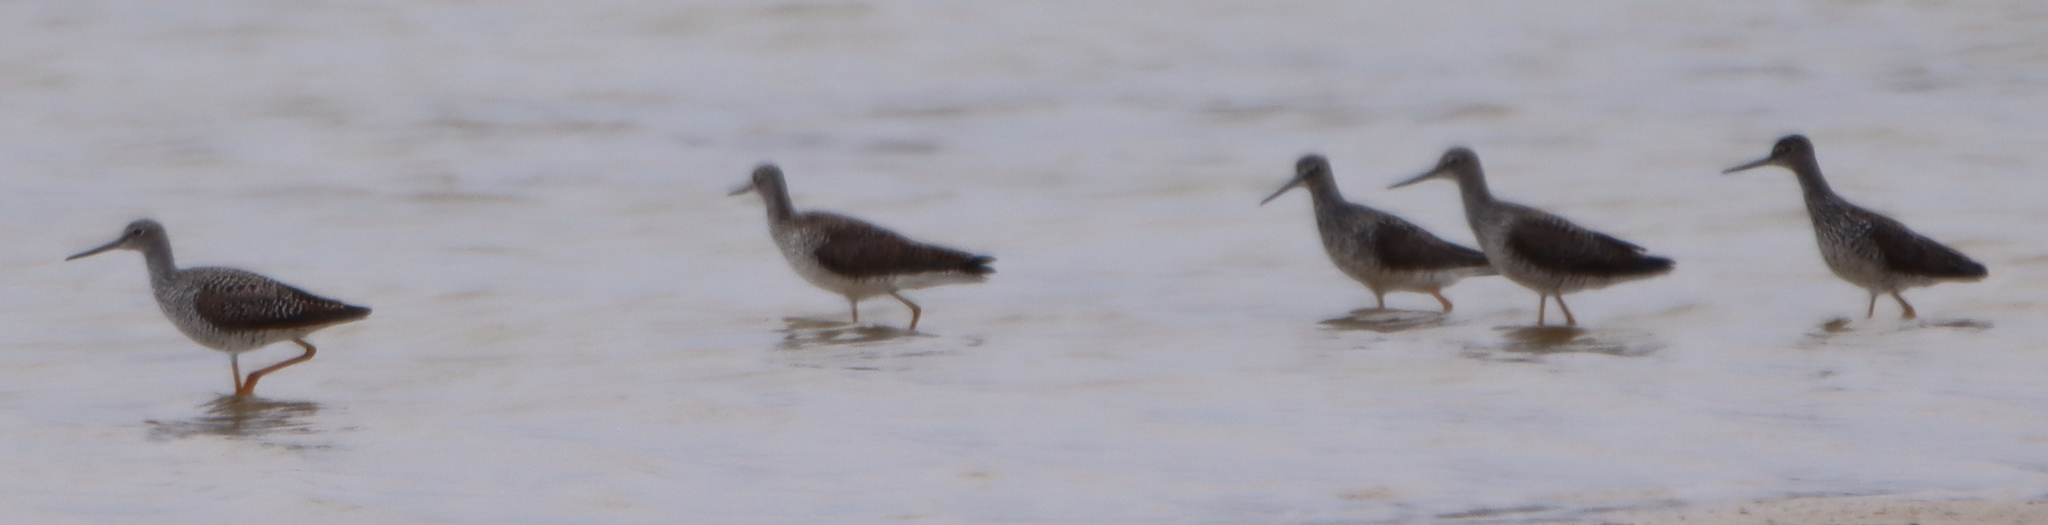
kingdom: Animalia
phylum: Chordata
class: Aves
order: Charadriiformes
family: Scolopacidae
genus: Tringa
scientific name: Tringa melanoleuca
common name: Greater yellowlegs
